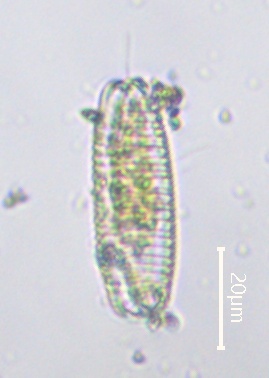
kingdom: Chromista
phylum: Ochrophyta
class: Bacillariophyceae
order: Fragilariales
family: Fragilariaceae
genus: Diatoma
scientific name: Diatoma vulgaris
